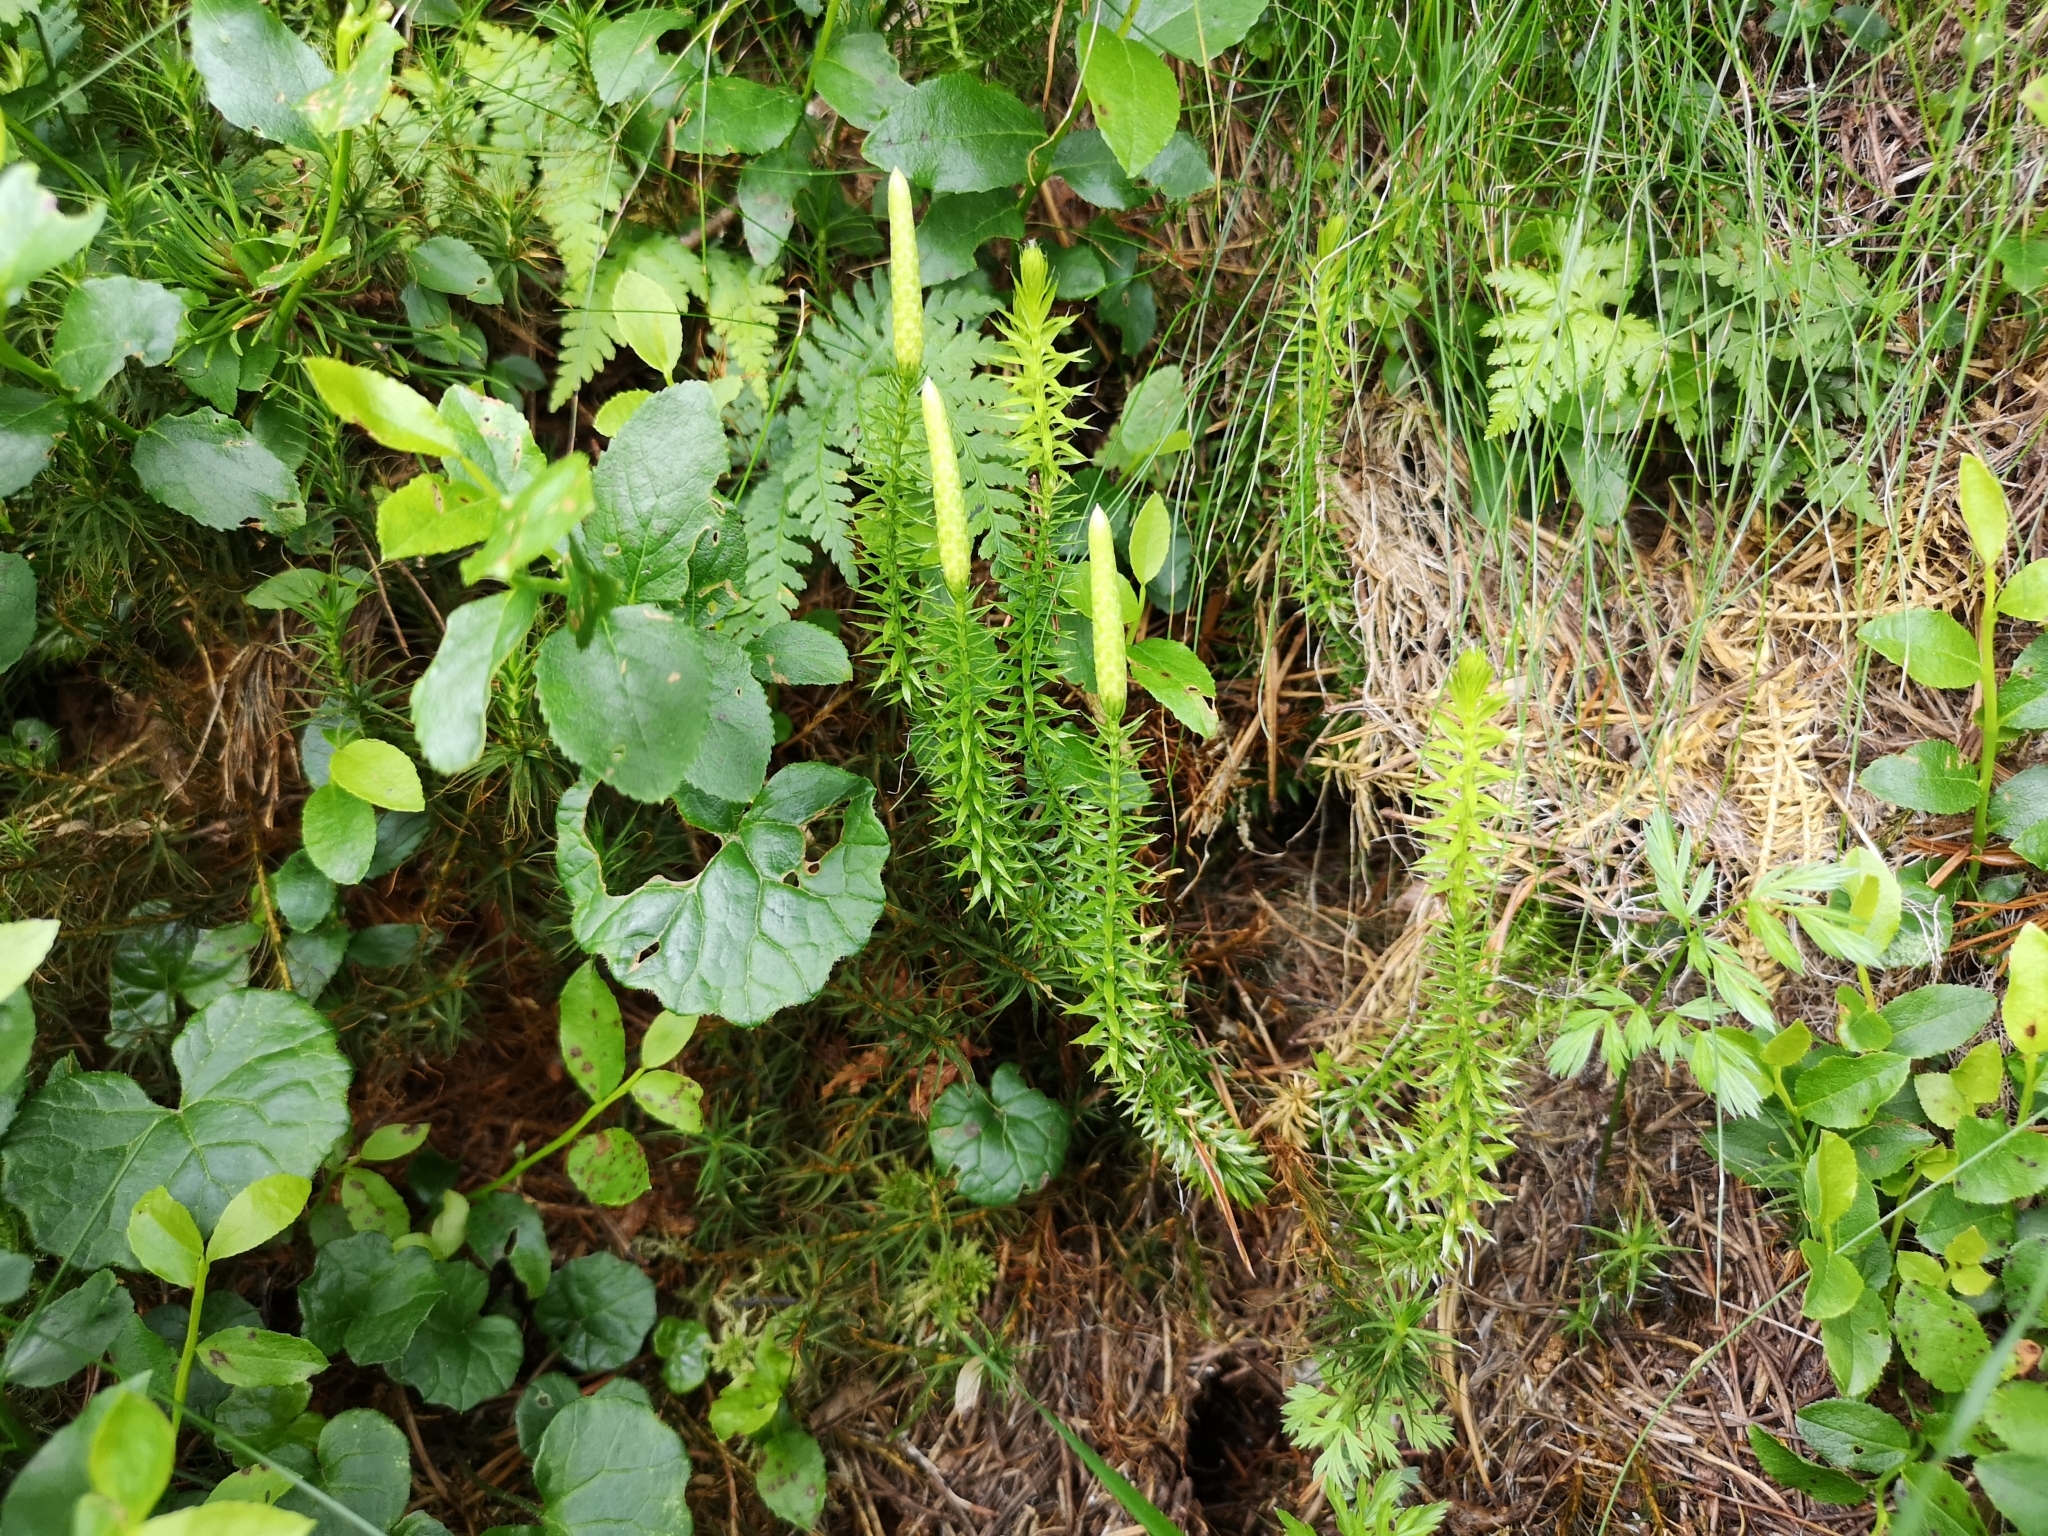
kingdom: Plantae
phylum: Tracheophyta
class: Lycopodiopsida
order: Lycopodiales
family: Lycopodiaceae
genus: Spinulum
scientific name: Spinulum annotinum
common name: Interrupted club-moss
